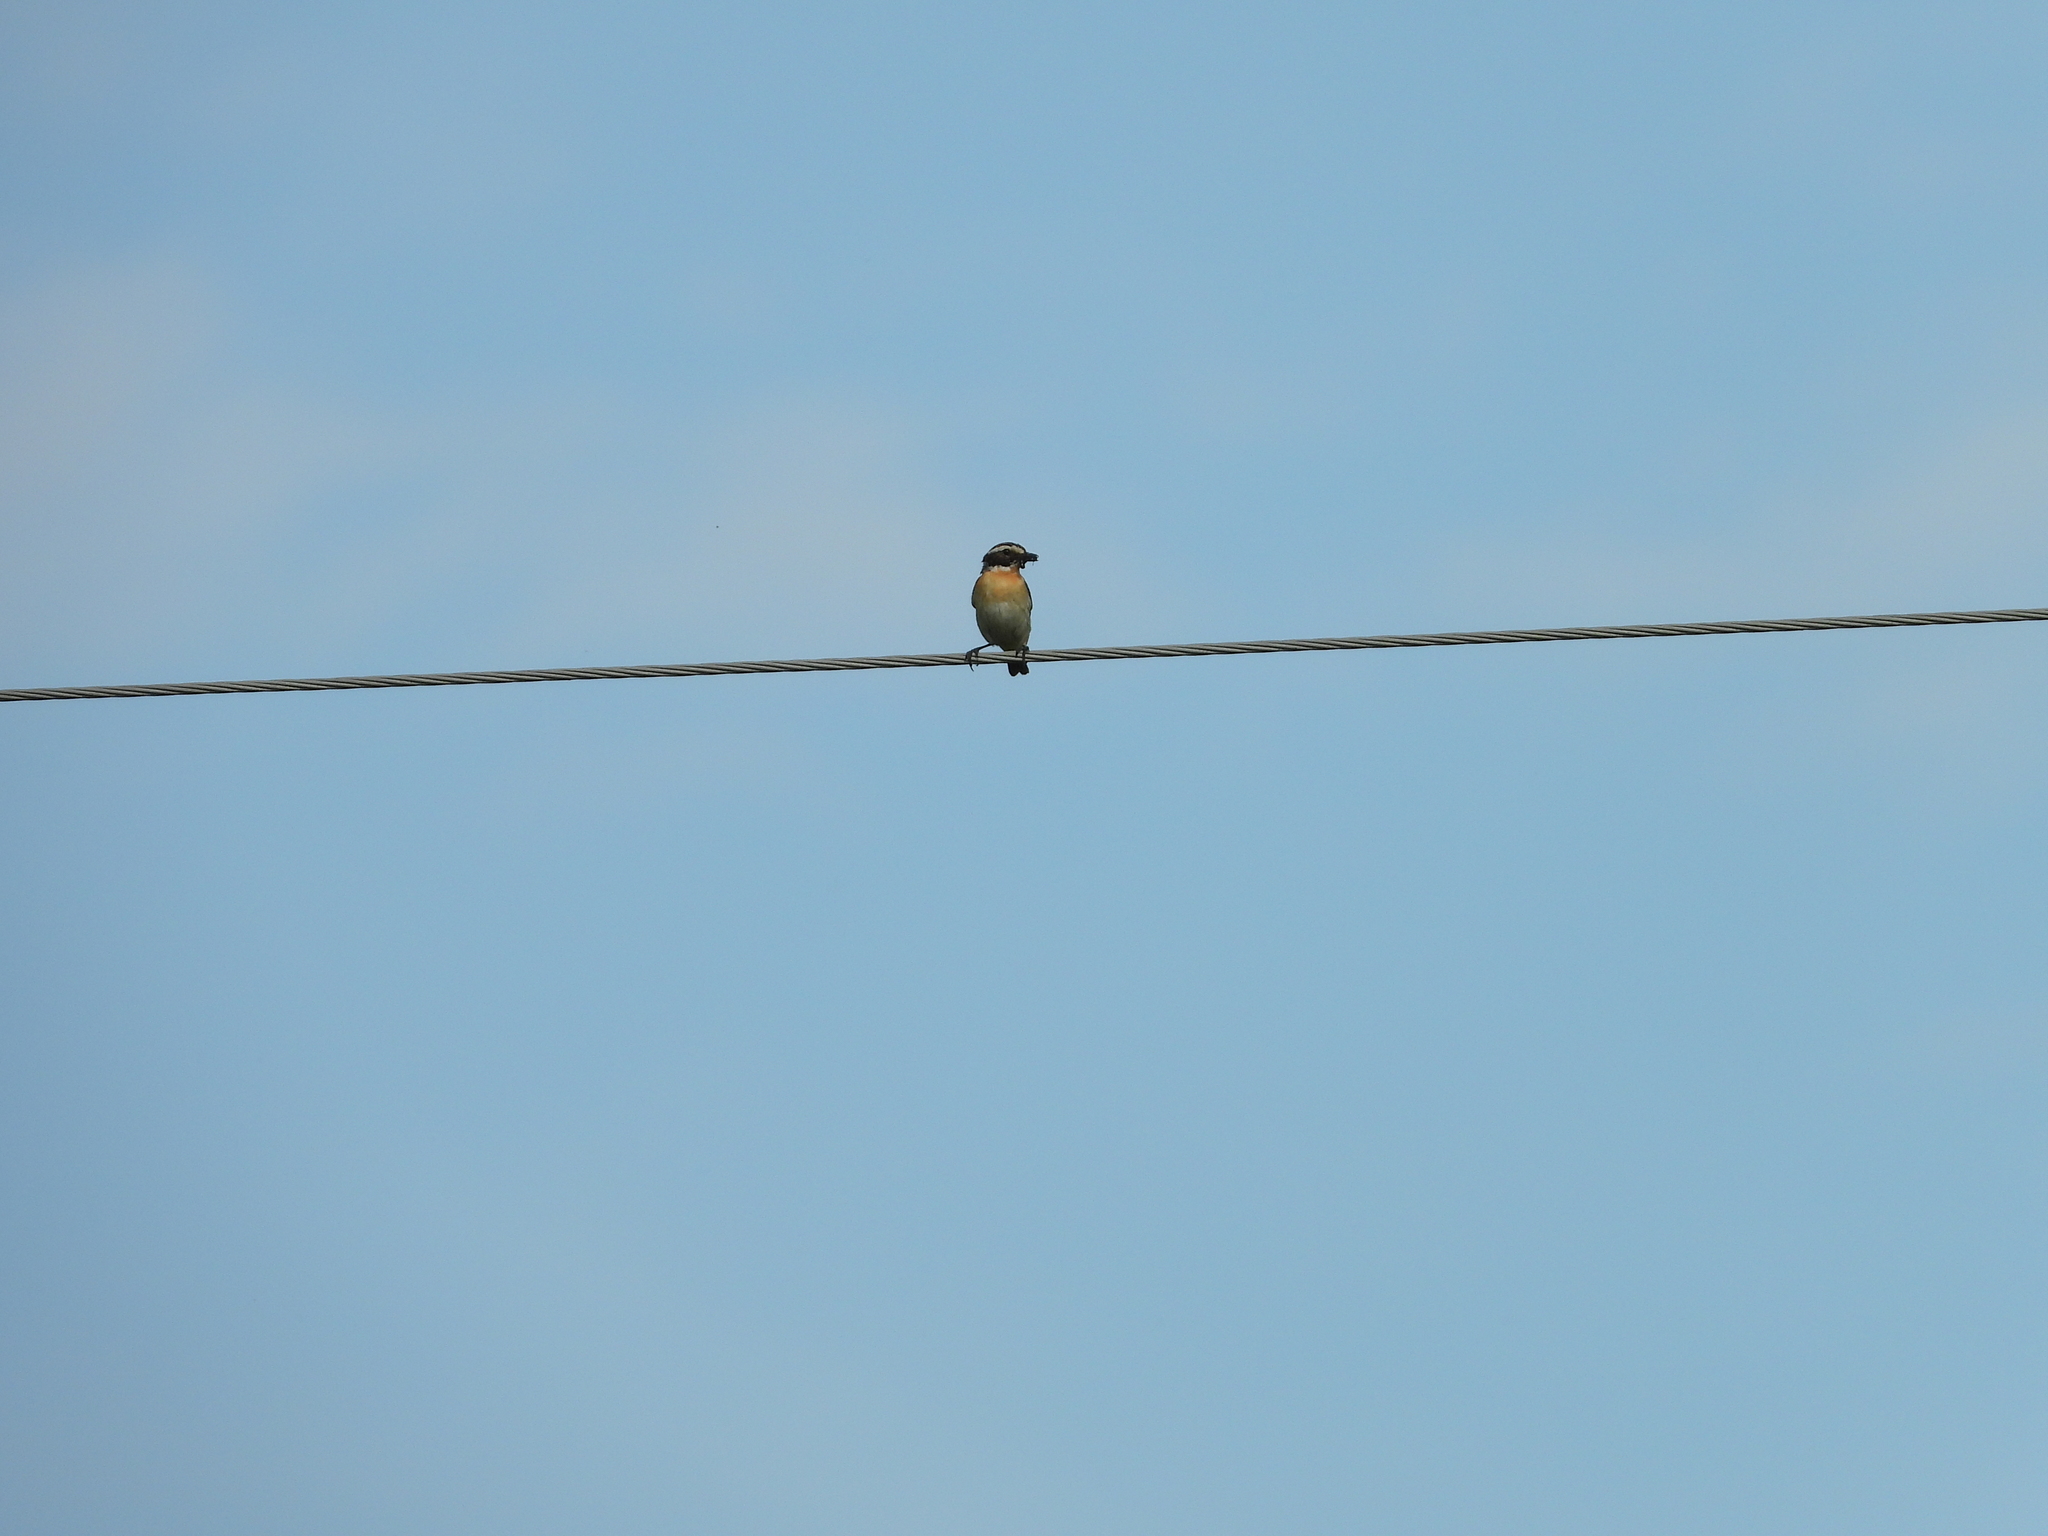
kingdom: Animalia
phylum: Chordata
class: Aves
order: Passeriformes
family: Muscicapidae
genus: Saxicola
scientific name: Saxicola rubetra
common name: Whinchat
